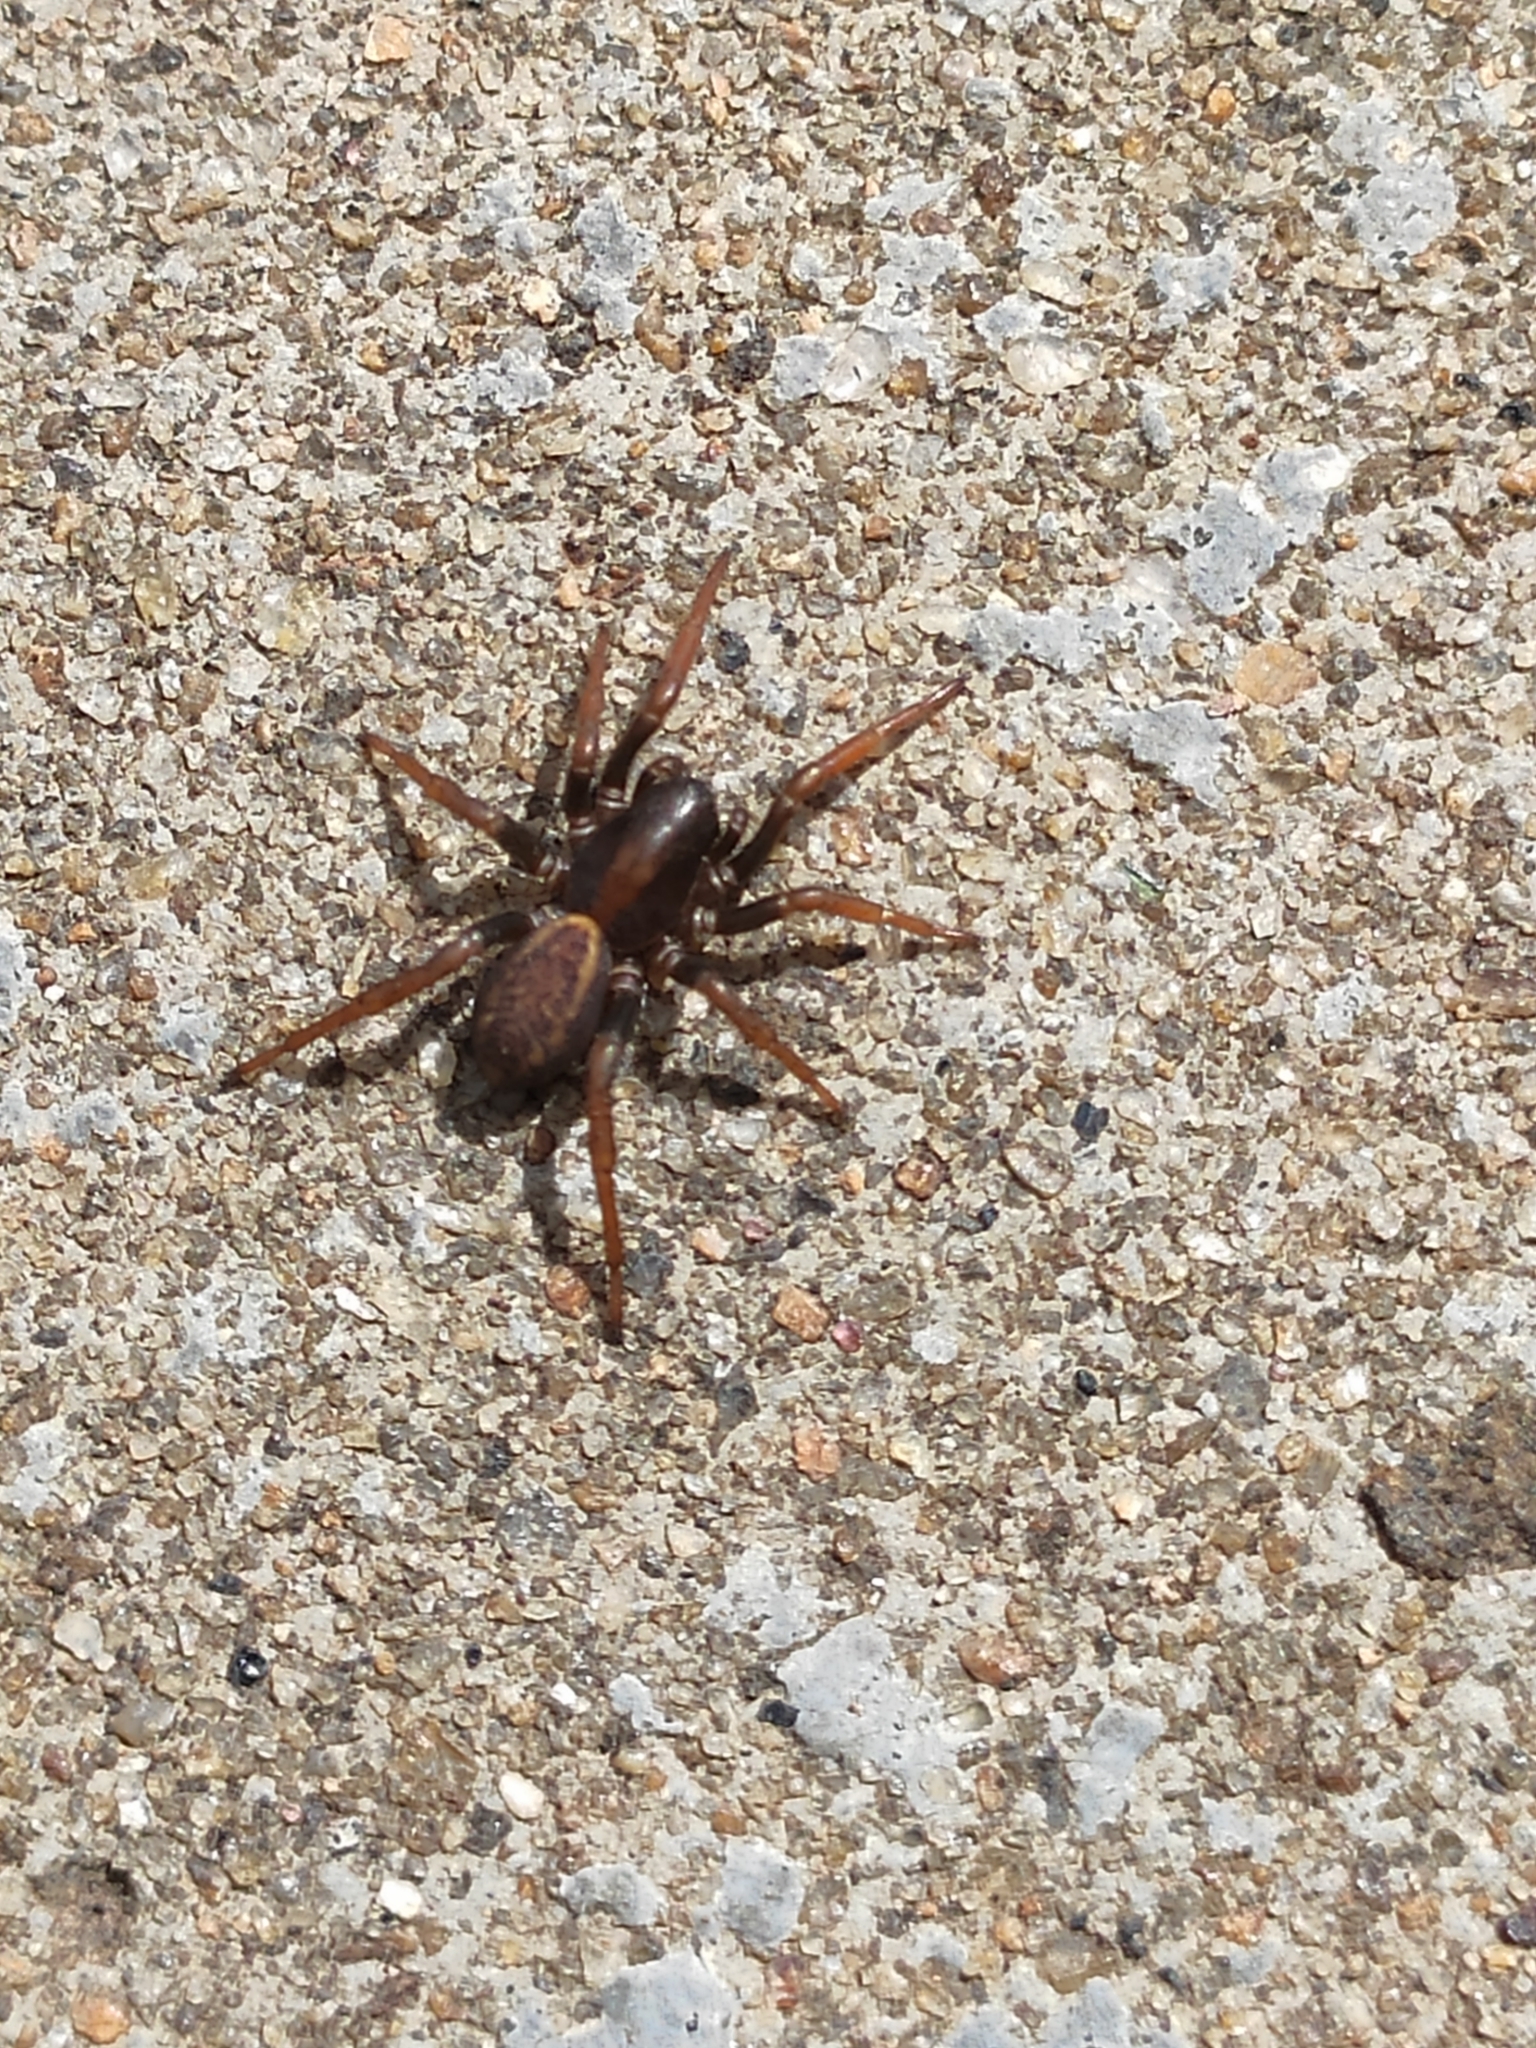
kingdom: Animalia
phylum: Arthropoda
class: Arachnida
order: Araneae
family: Zodariidae
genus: Cybaeodamus
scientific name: Cybaeodamus meridionalis
